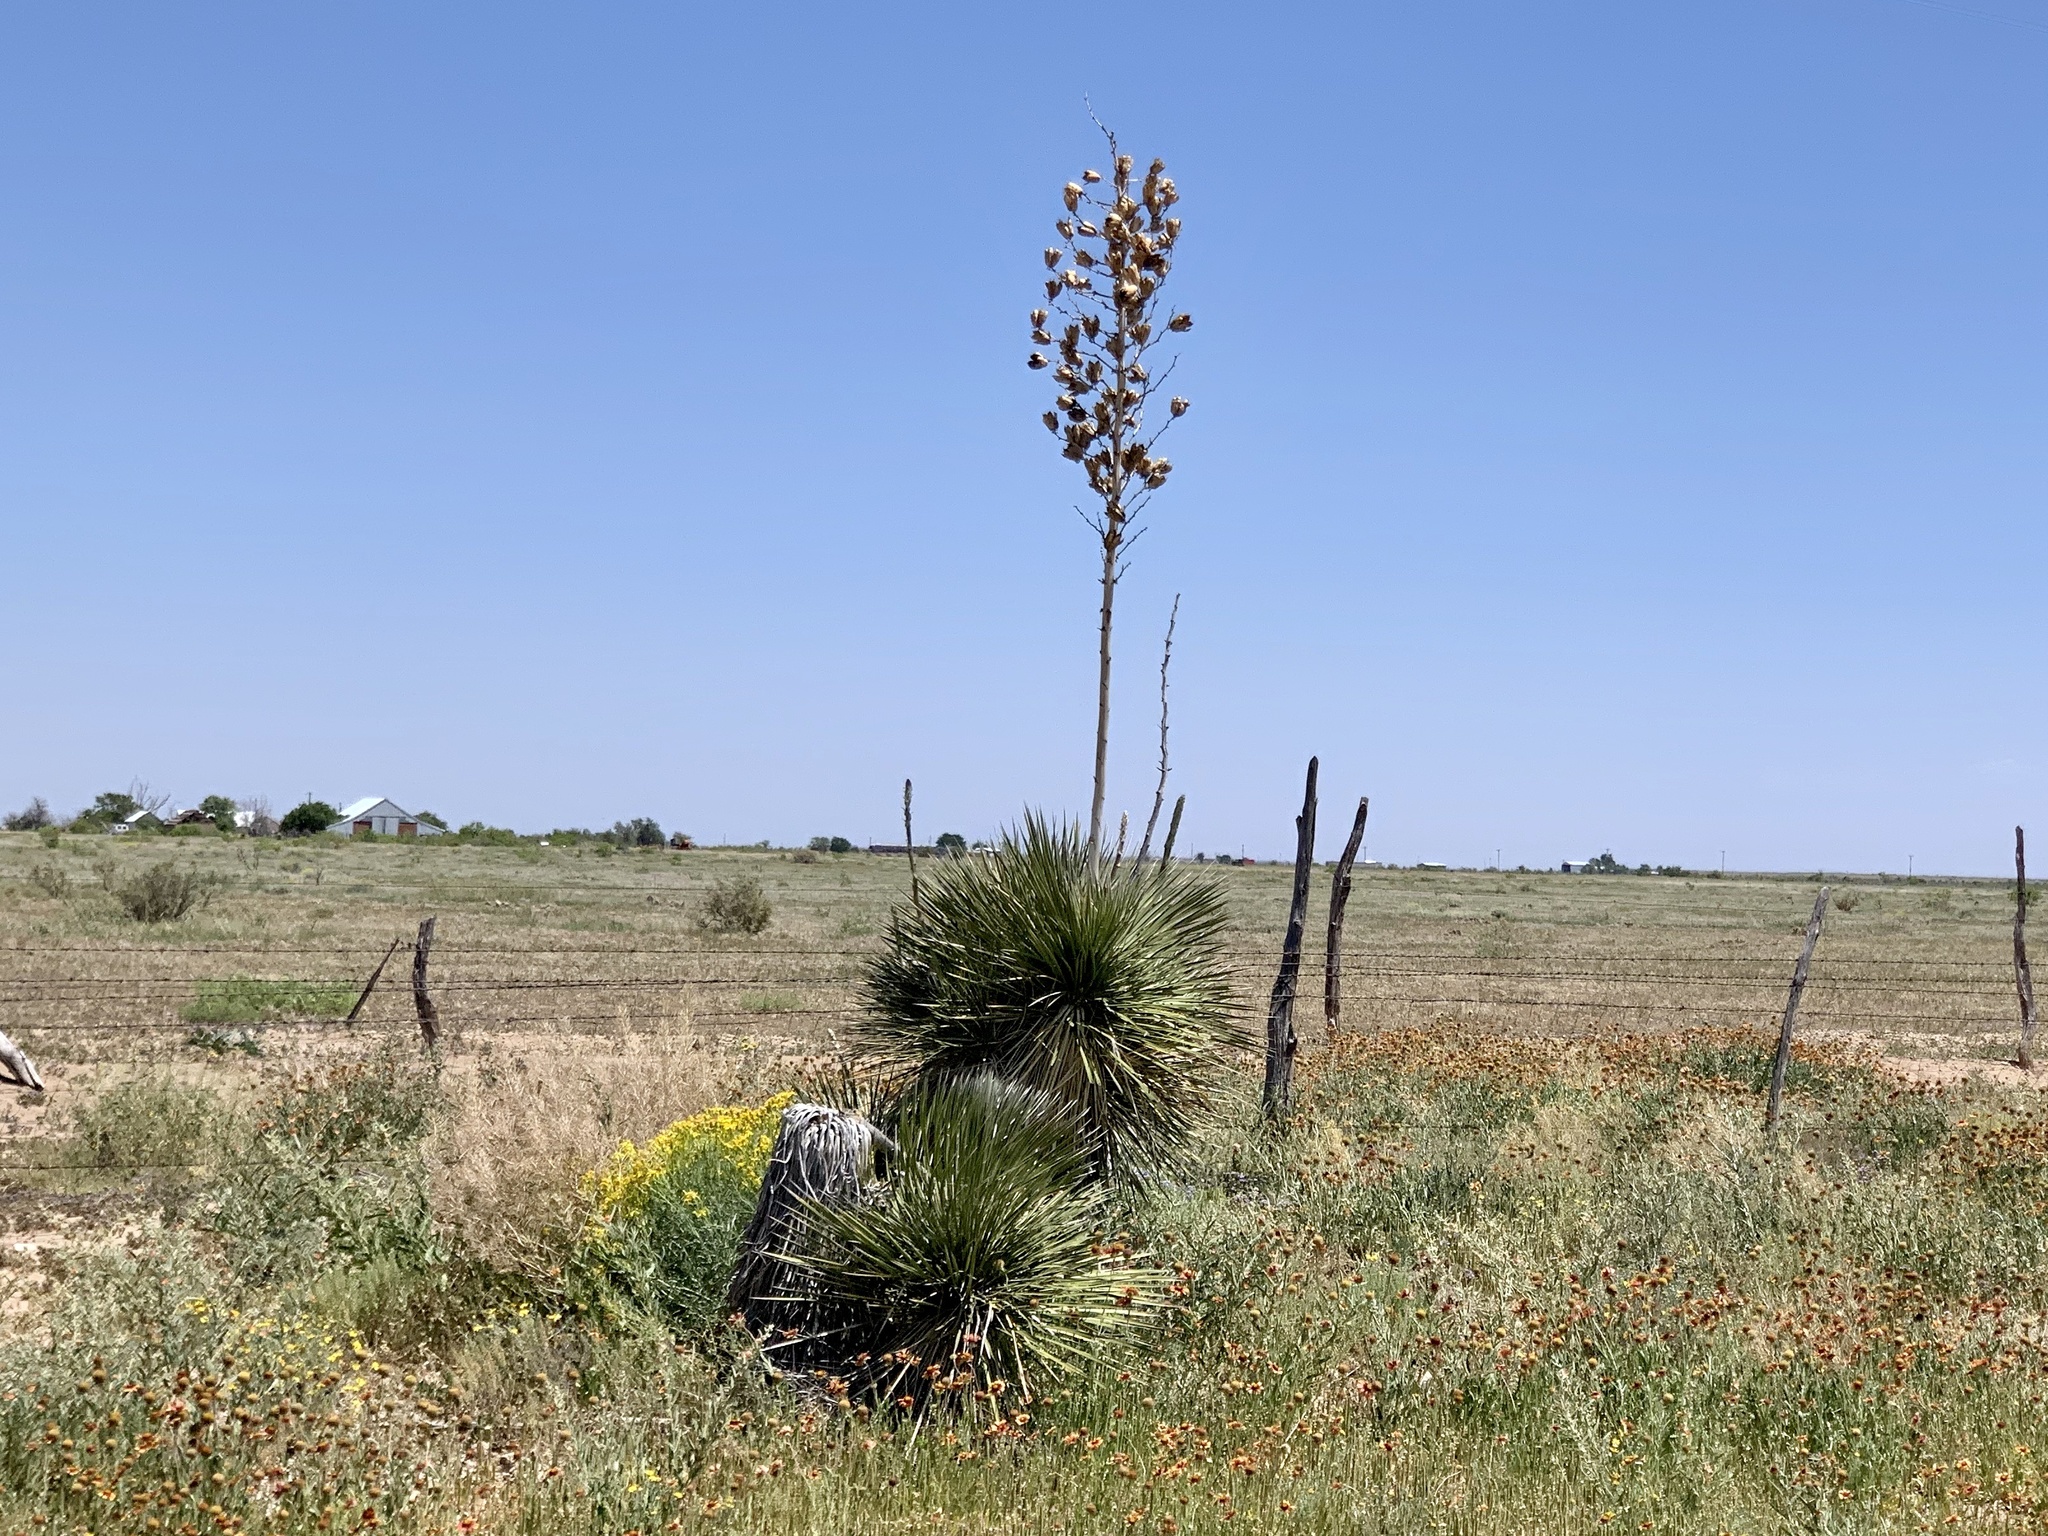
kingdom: Plantae
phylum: Tracheophyta
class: Liliopsida
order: Asparagales
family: Asparagaceae
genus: Yucca
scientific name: Yucca elata
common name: Palmella
